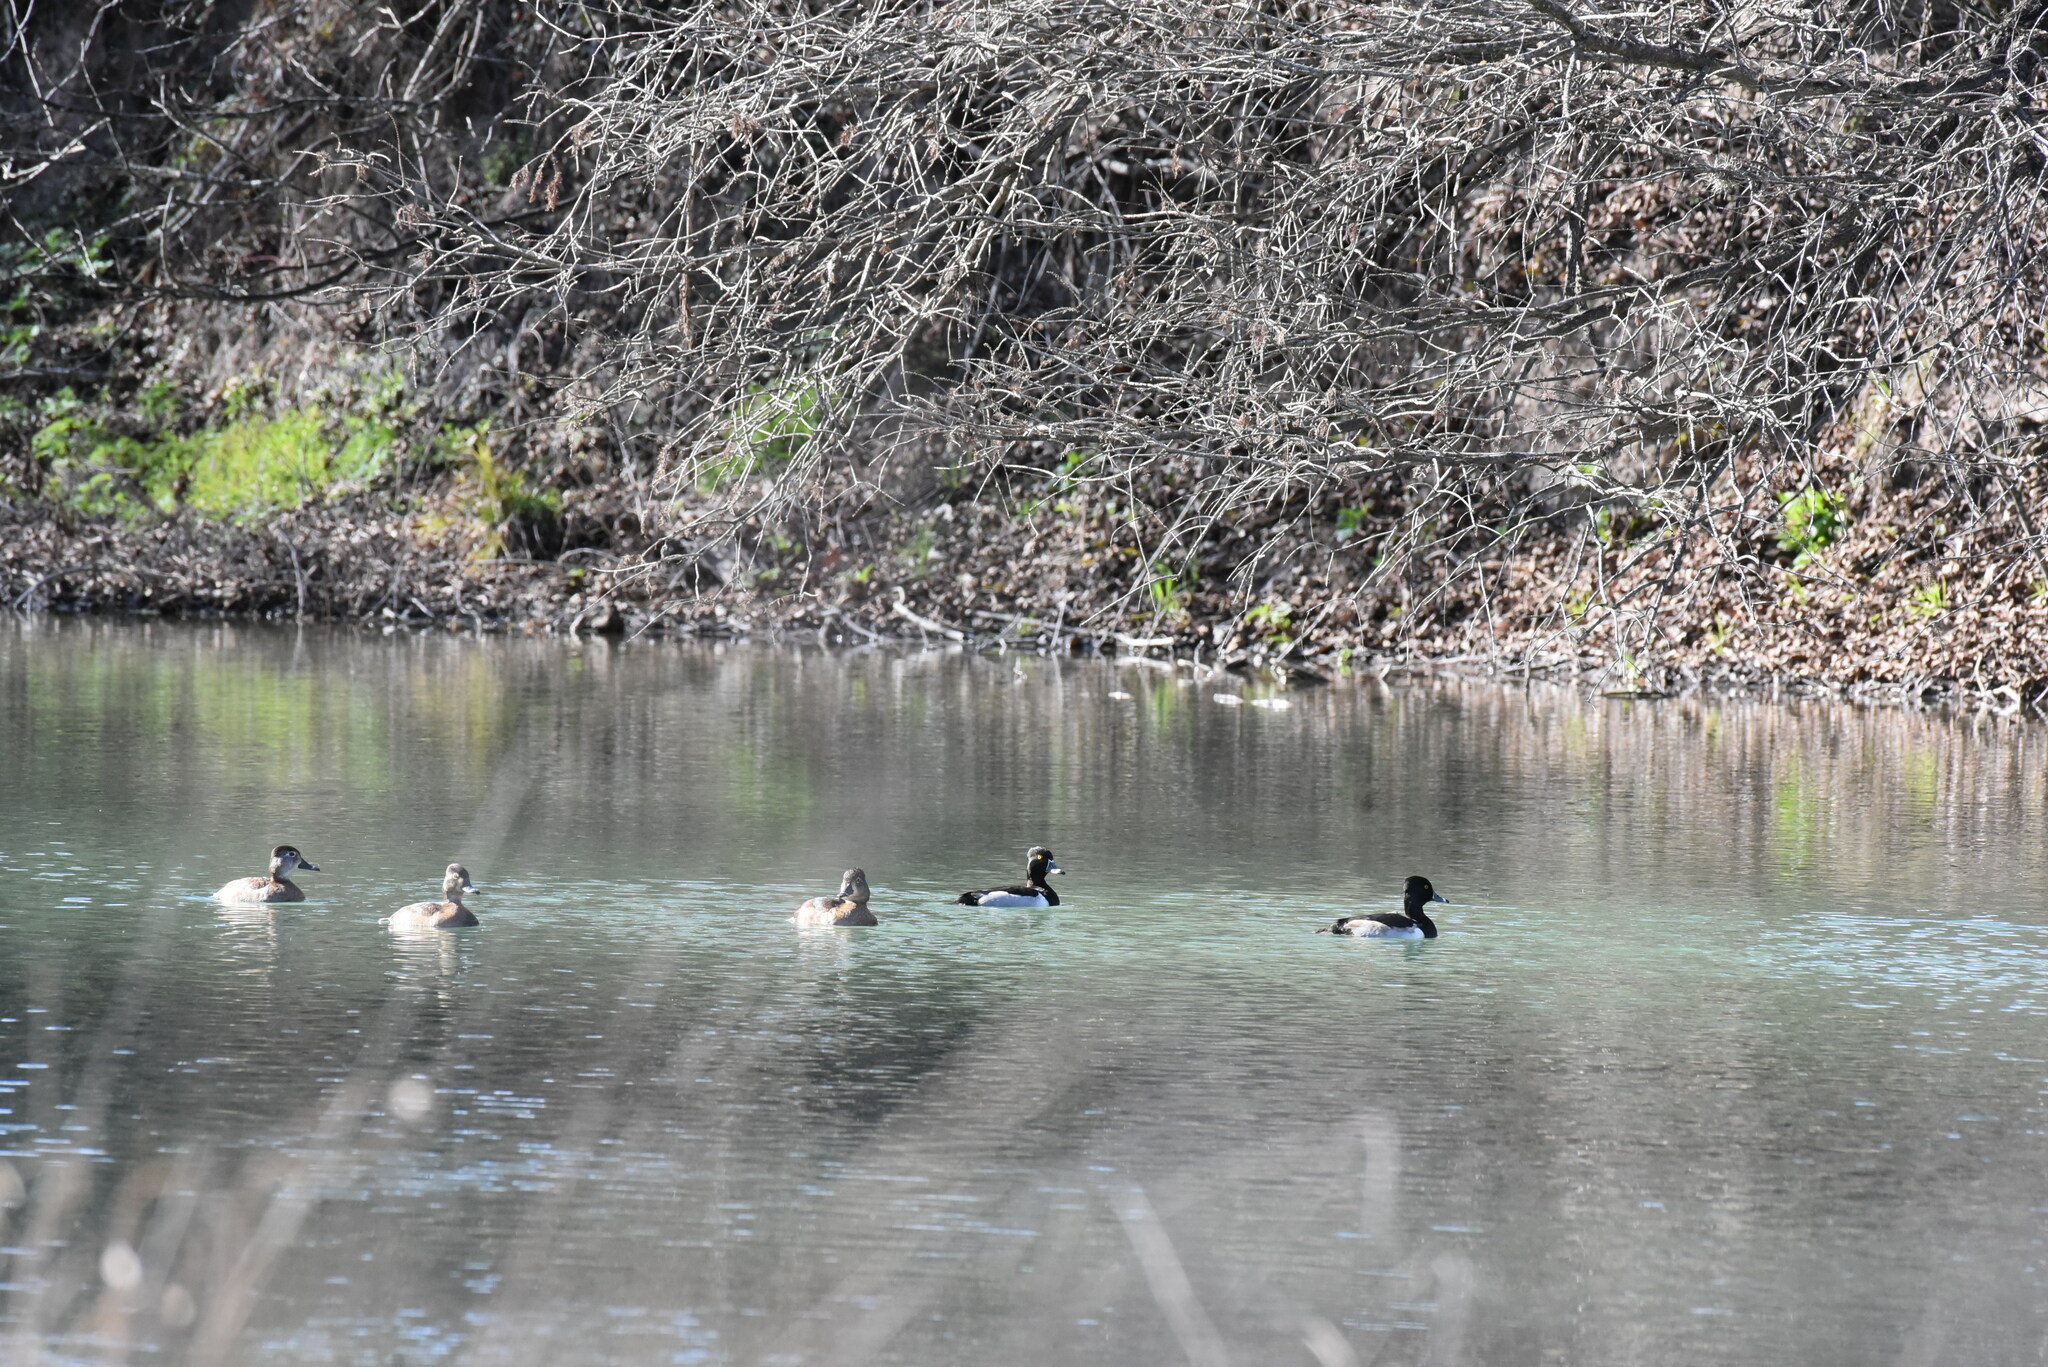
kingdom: Animalia
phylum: Chordata
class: Aves
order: Anseriformes
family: Anatidae
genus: Aythya
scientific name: Aythya collaris
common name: Ring-necked duck
